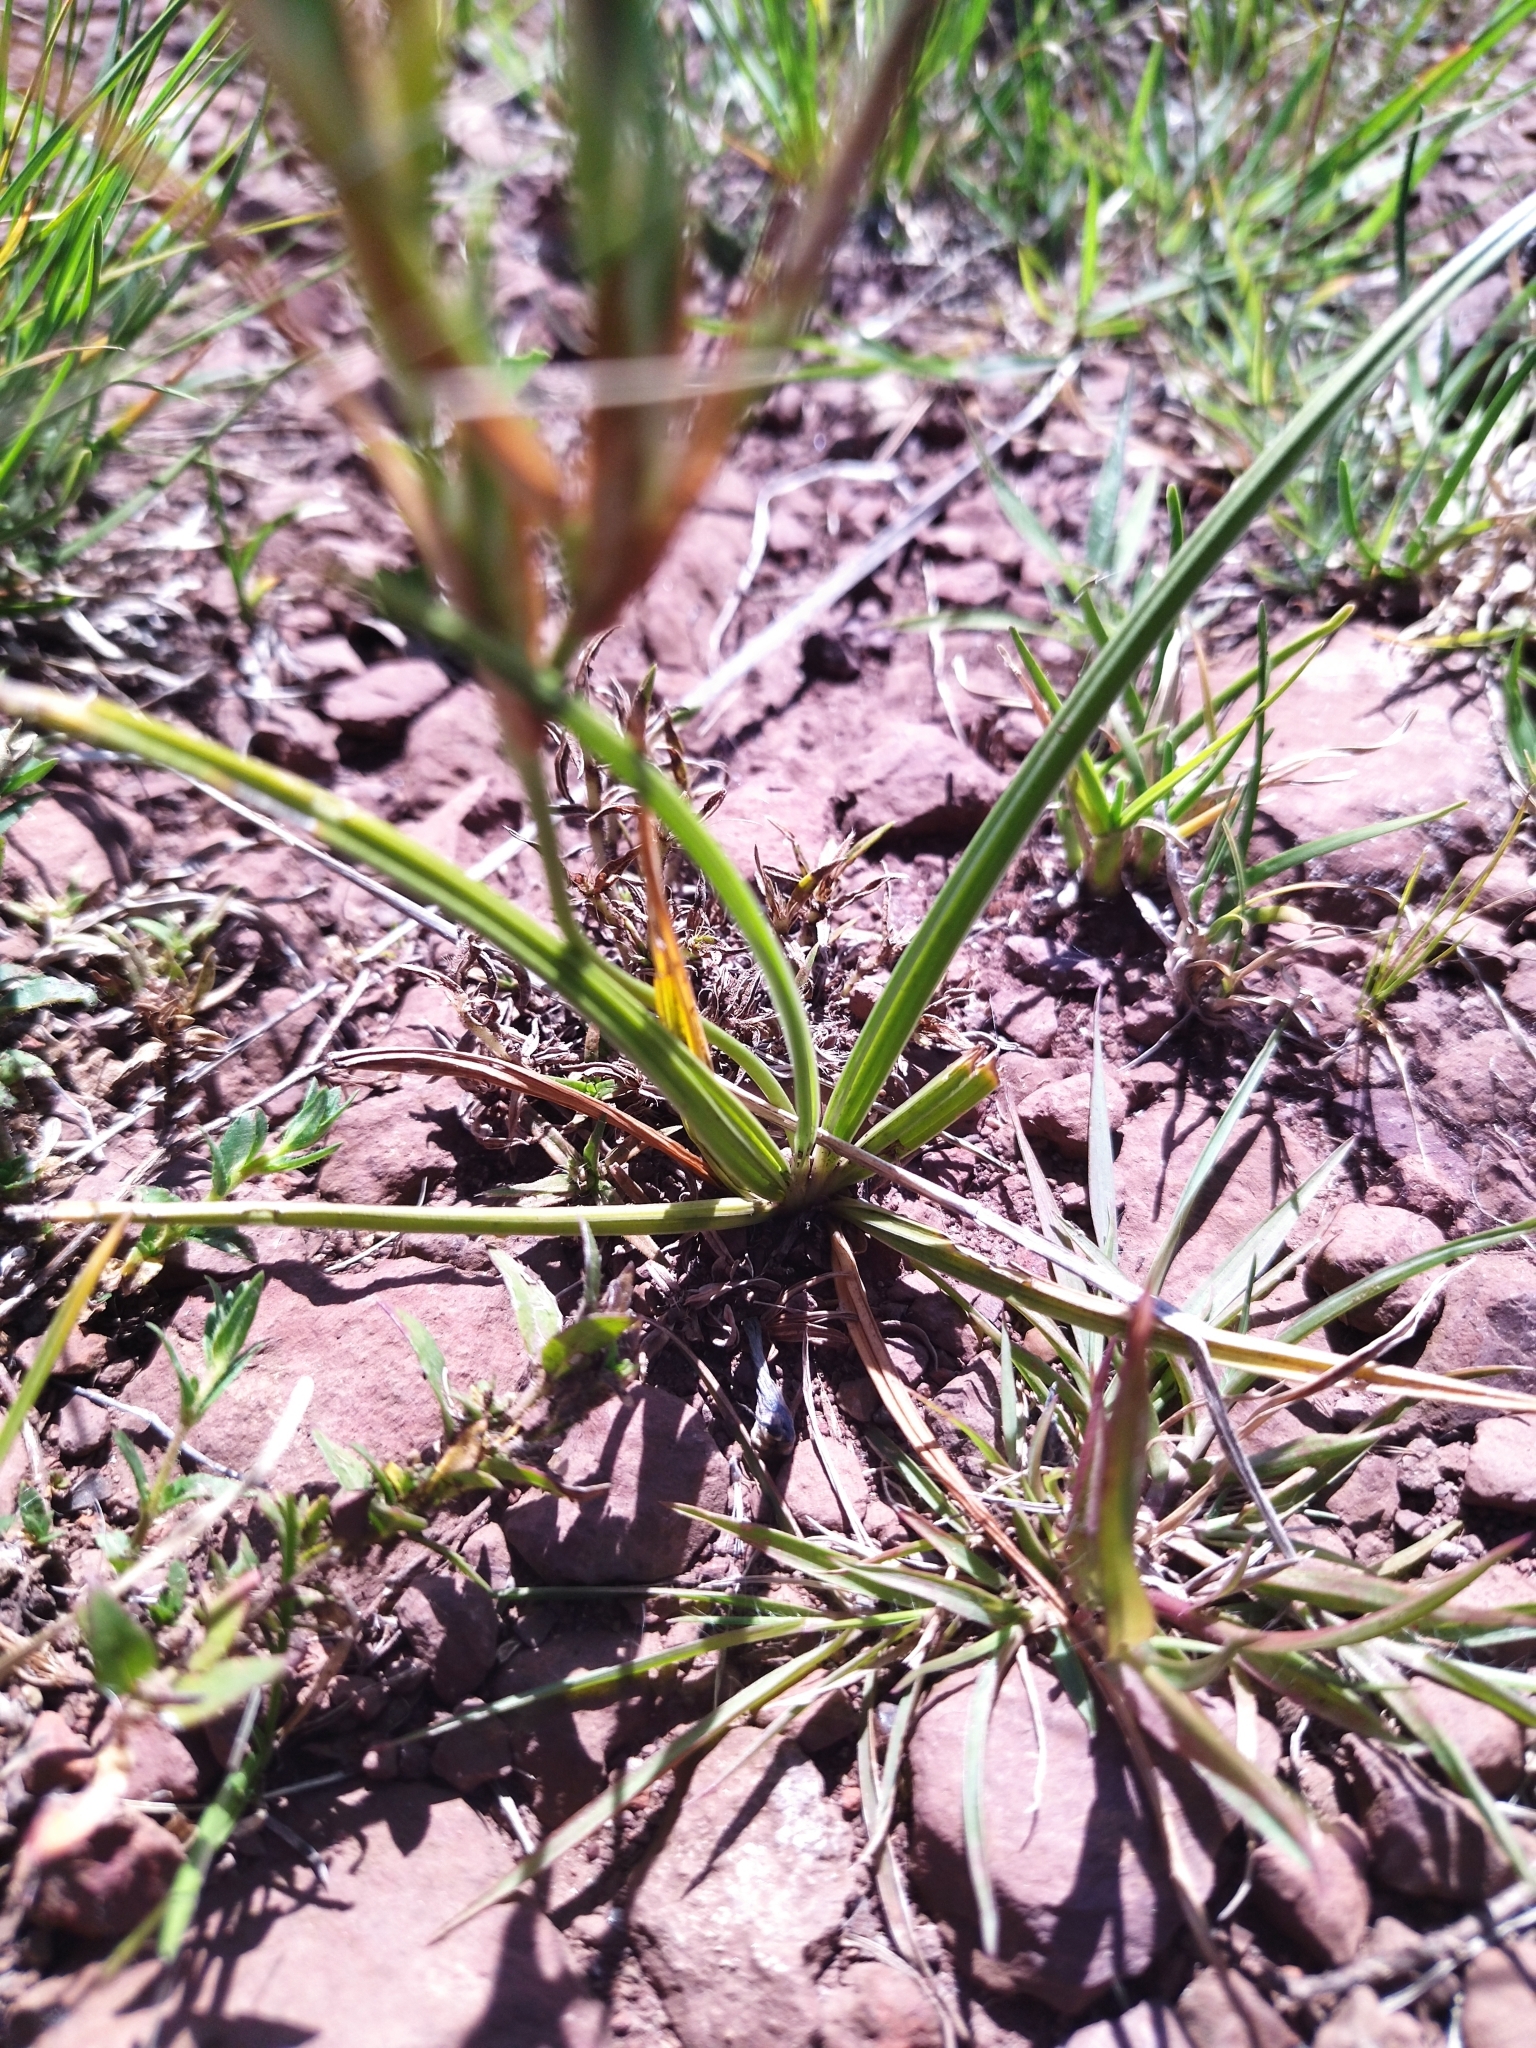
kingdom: Plantae
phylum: Tracheophyta
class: Liliopsida
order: Asparagales
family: Iridaceae
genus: Cypella
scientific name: Cypella discolor
